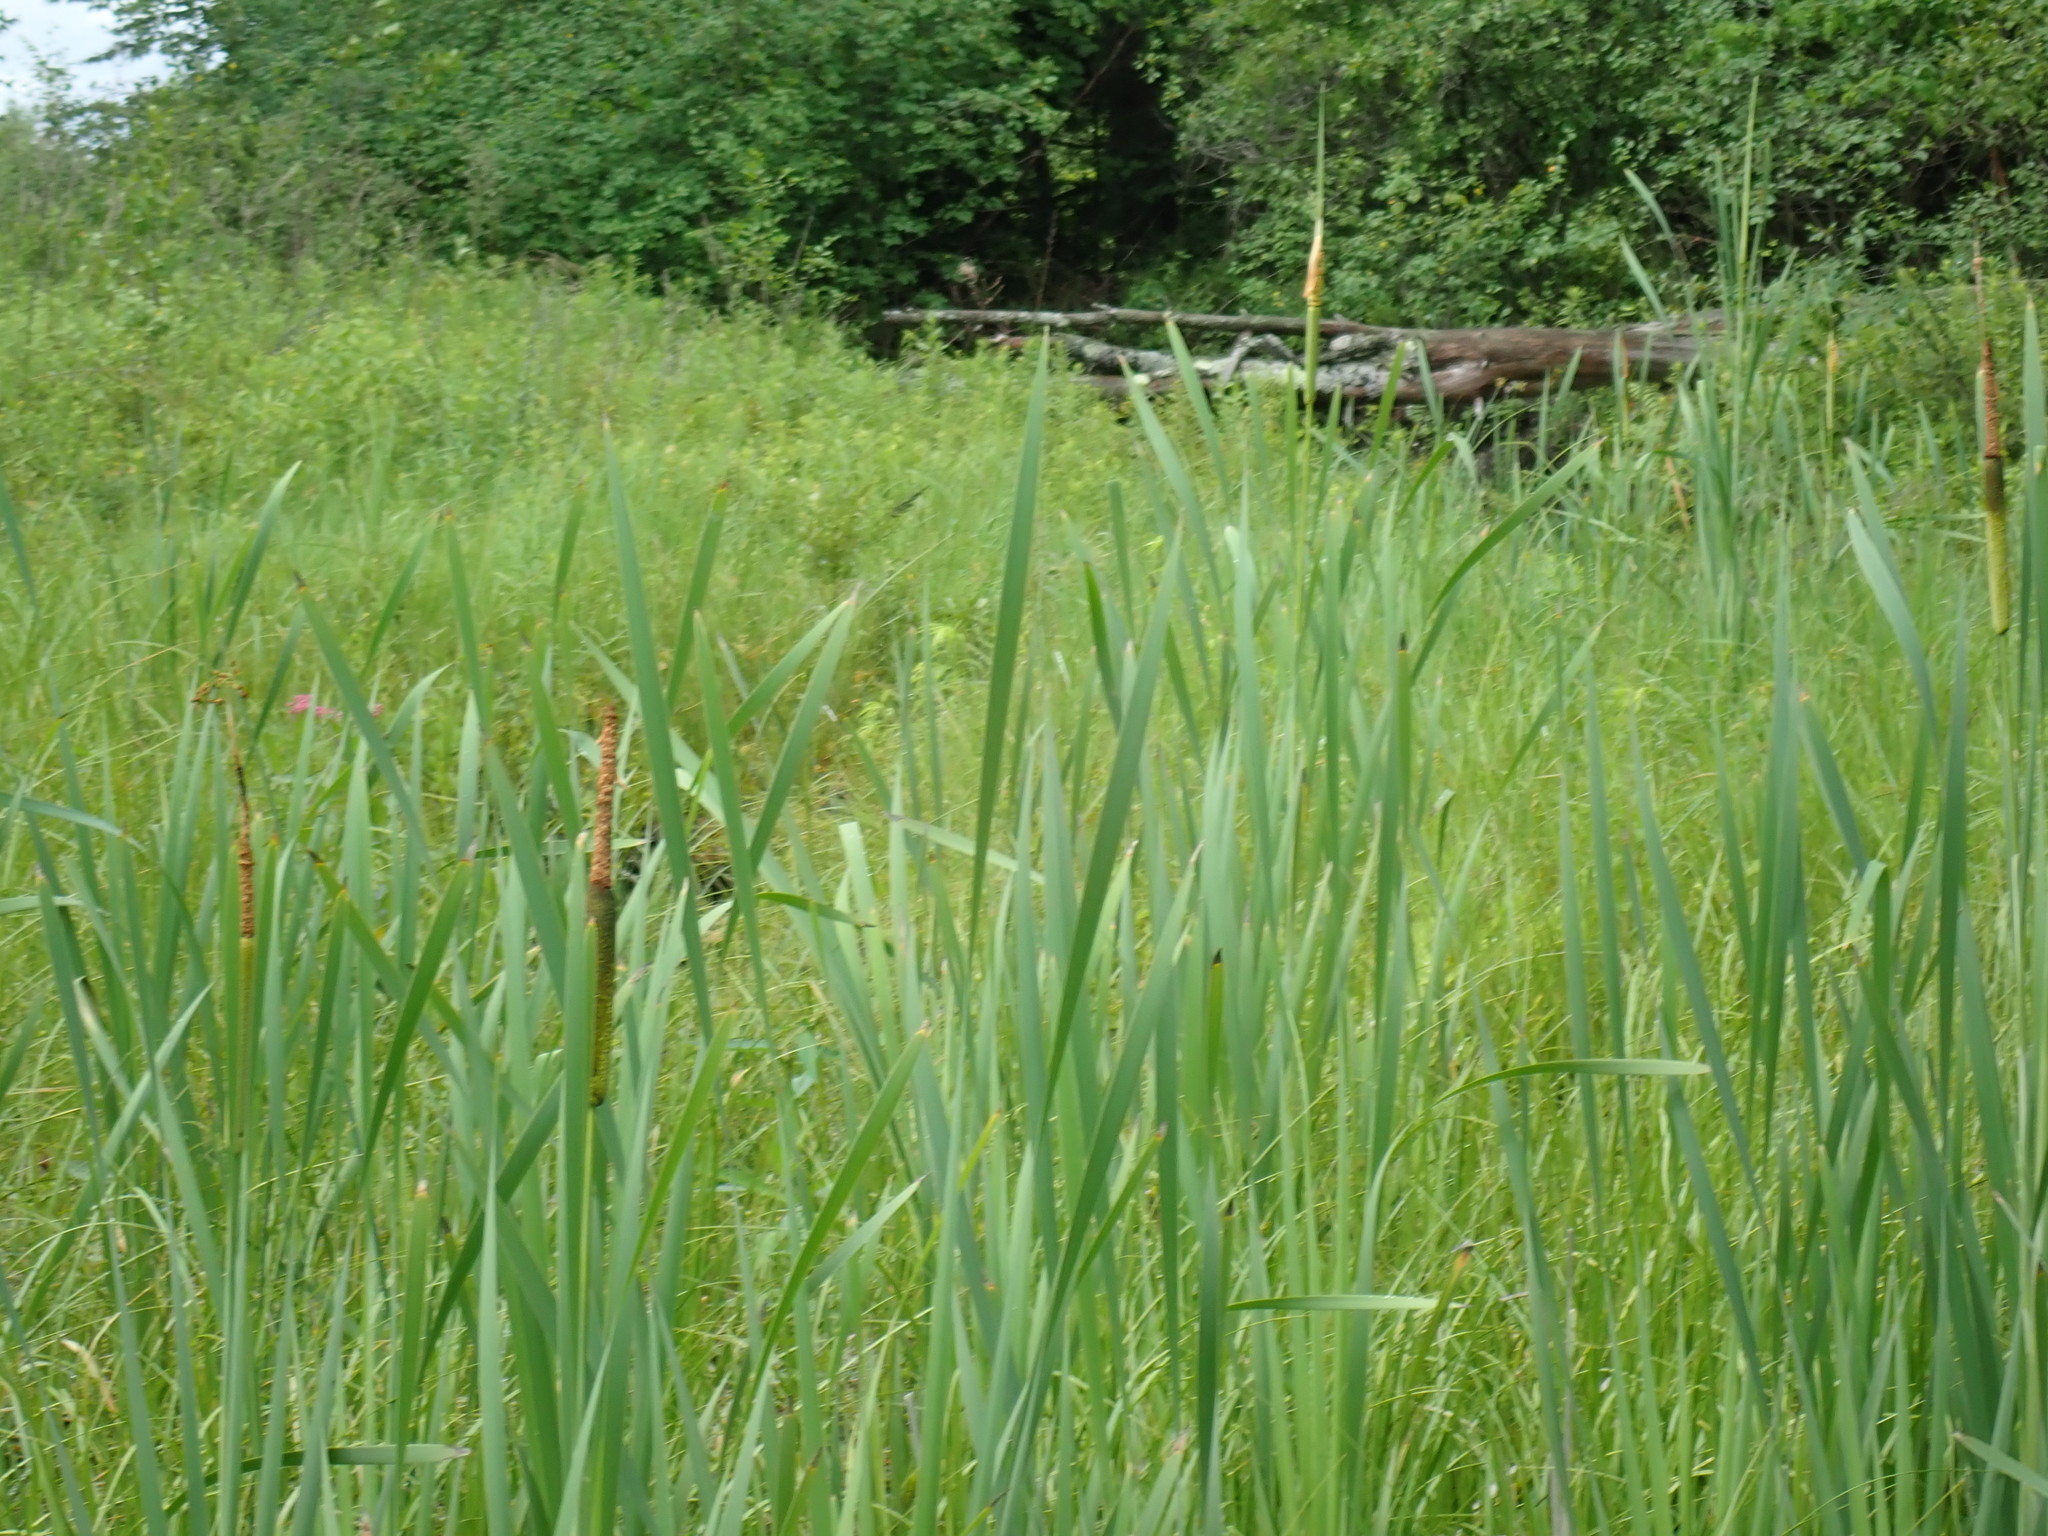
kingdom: Plantae
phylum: Tracheophyta
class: Liliopsida
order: Poales
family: Typhaceae
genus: Typha
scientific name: Typha latifolia
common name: Broadleaf cattail
